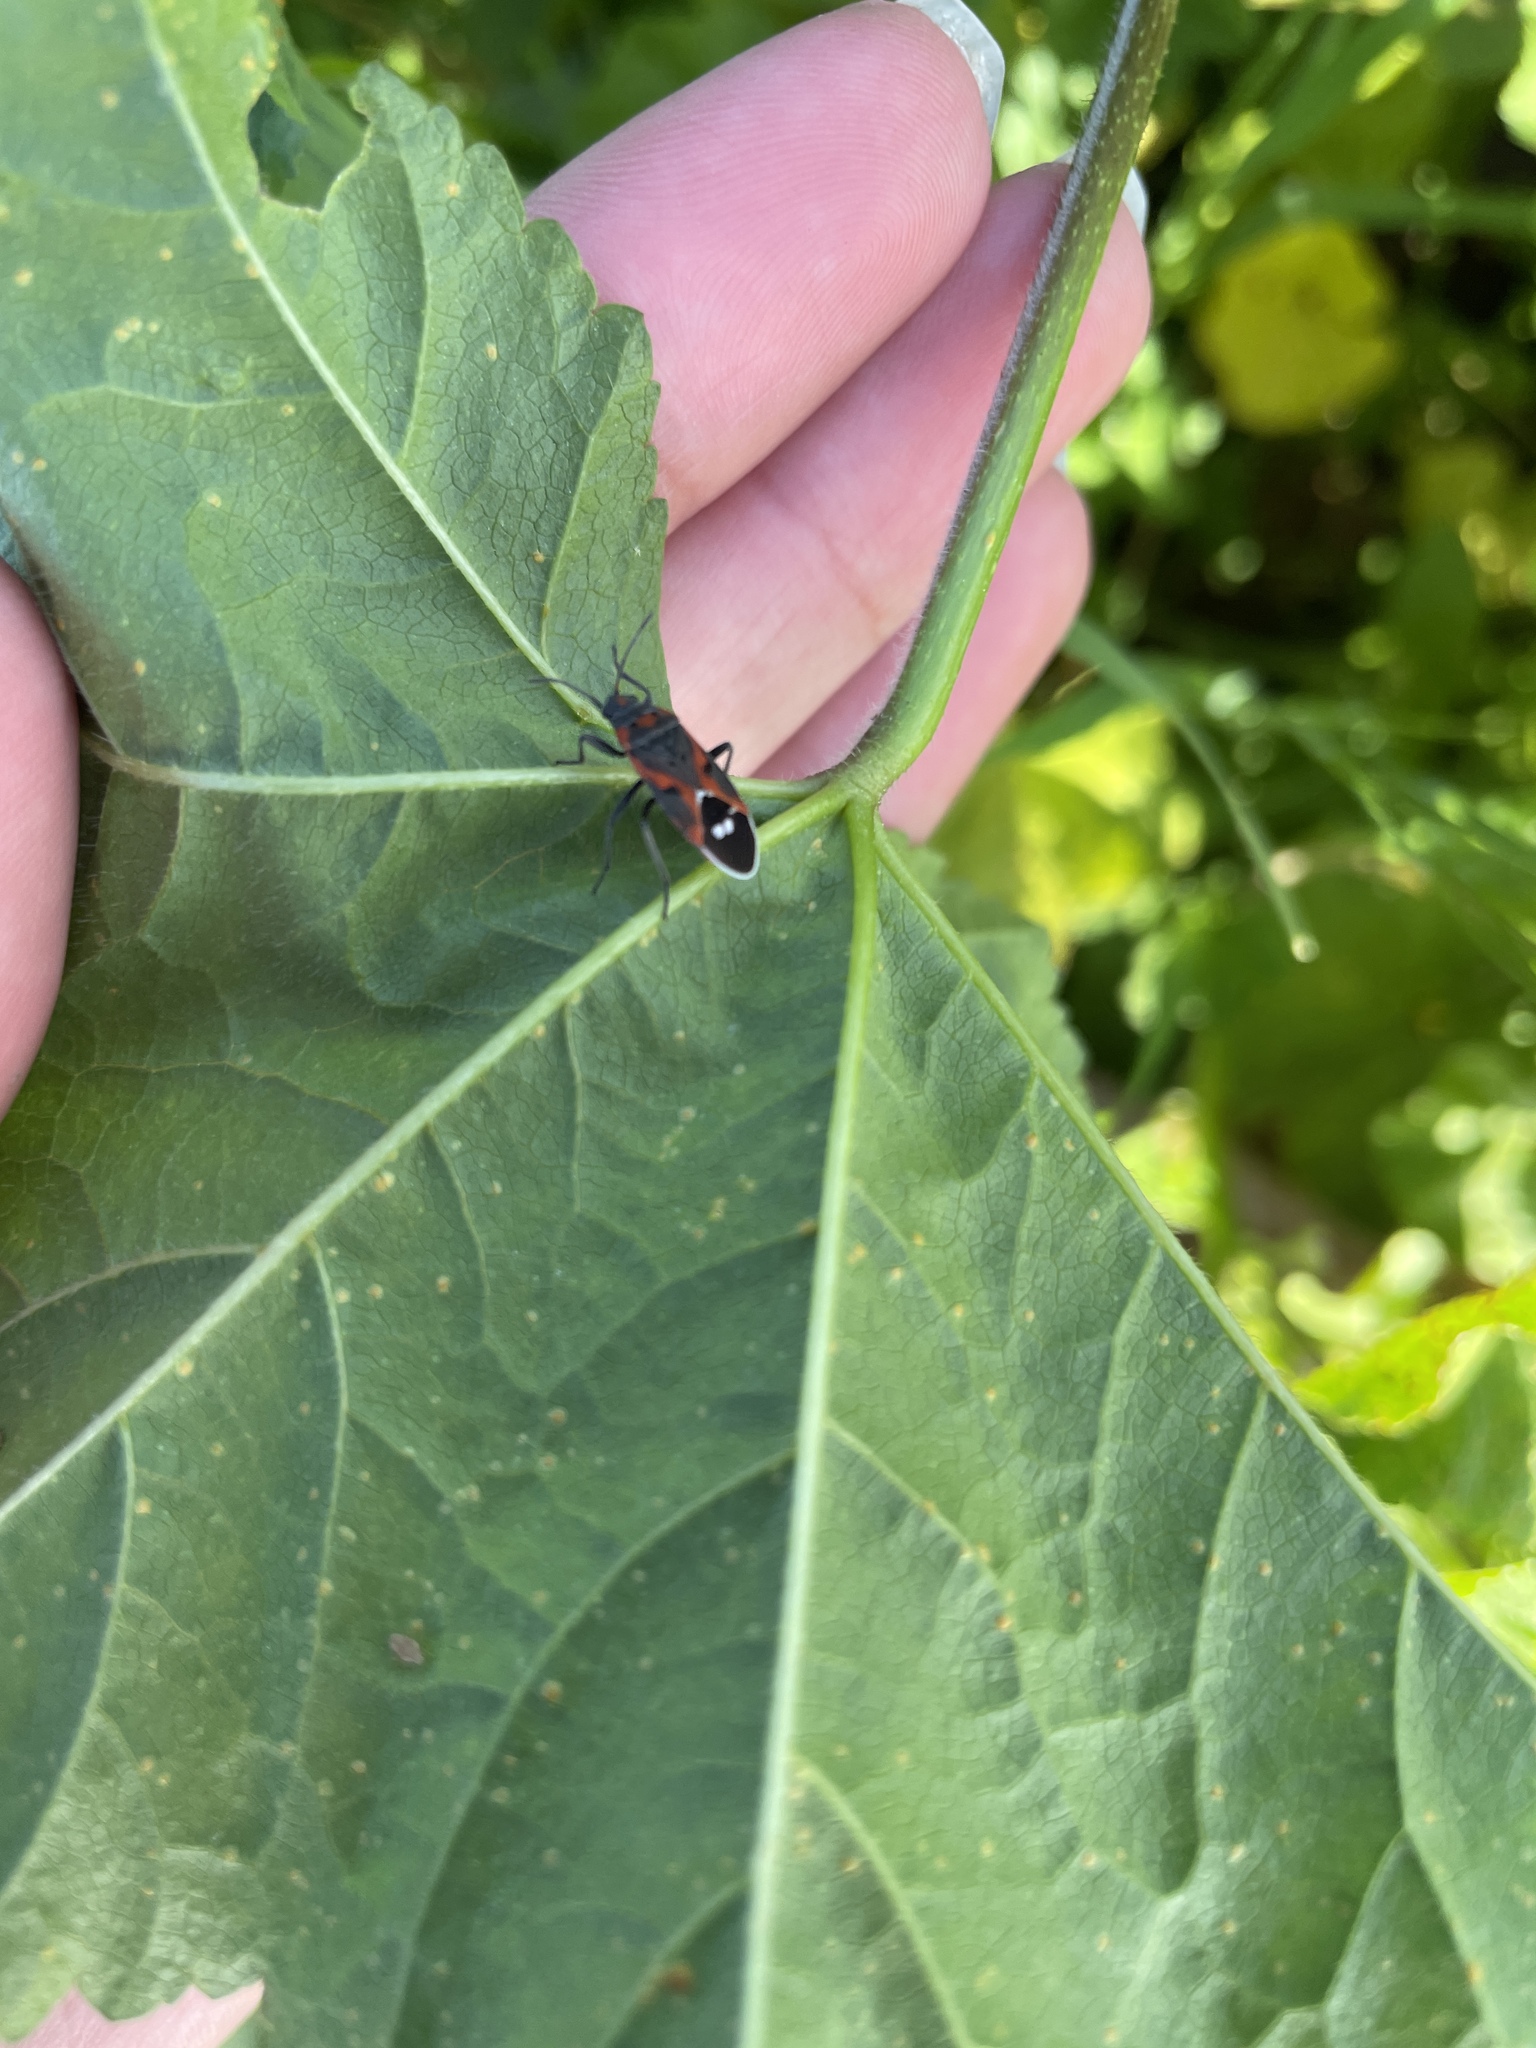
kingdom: Animalia
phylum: Arthropoda
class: Insecta
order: Hemiptera
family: Lygaeidae
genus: Lygaeus
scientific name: Lygaeus kalmii
